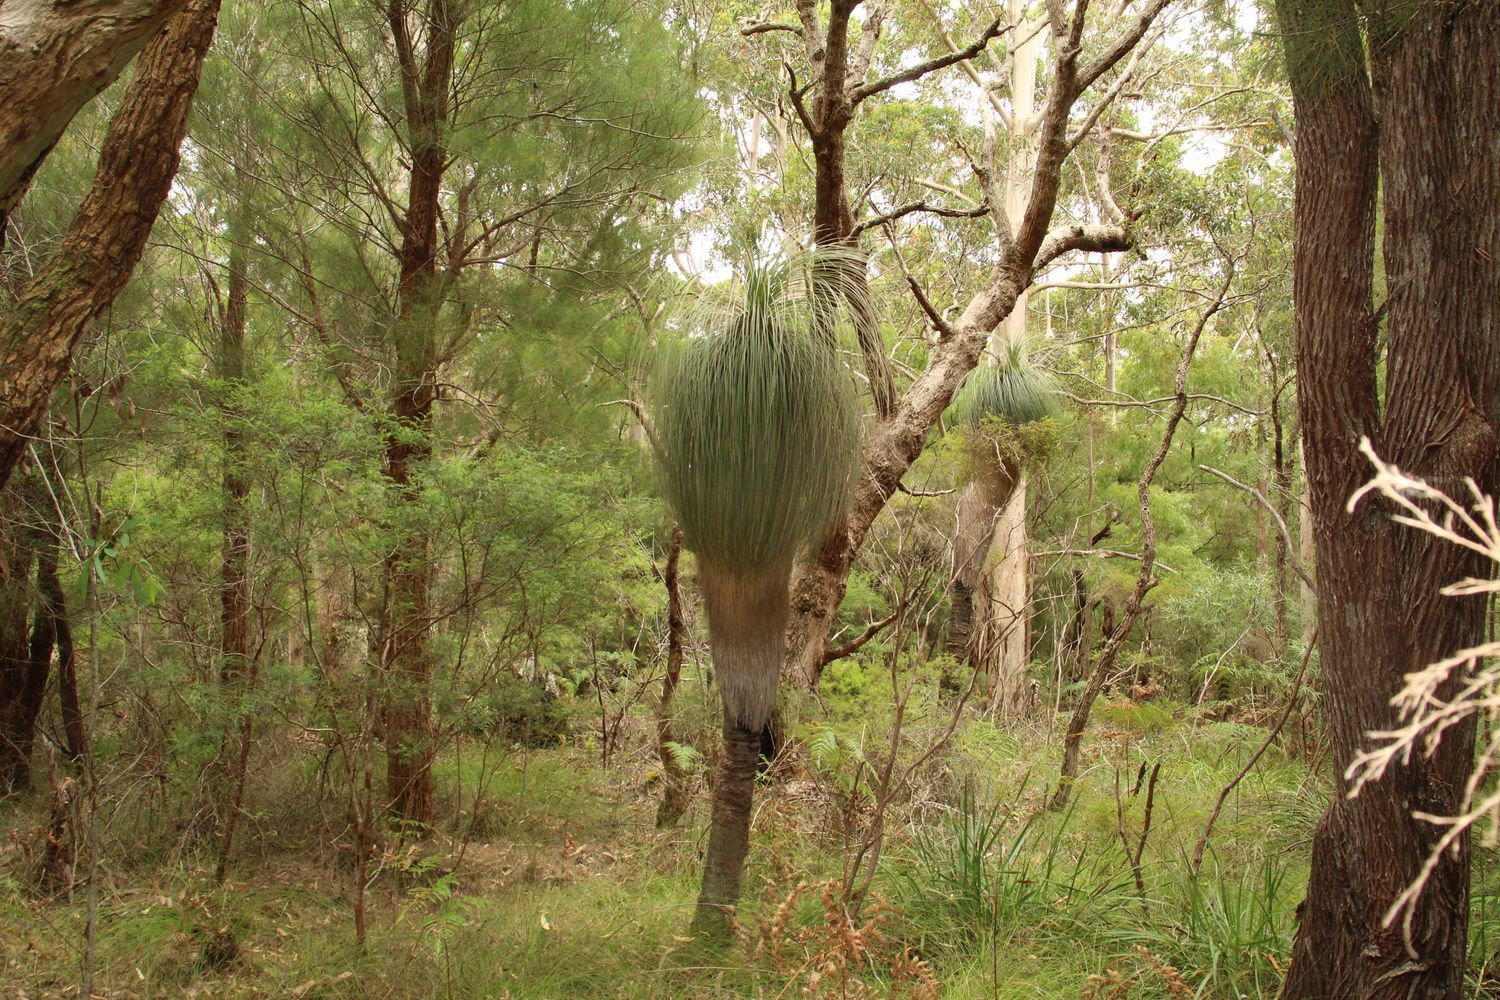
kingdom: Plantae
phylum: Tracheophyta
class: Liliopsida
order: Arecales
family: Dasypogonaceae
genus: Kingia
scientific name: Kingia australis
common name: Black gin
